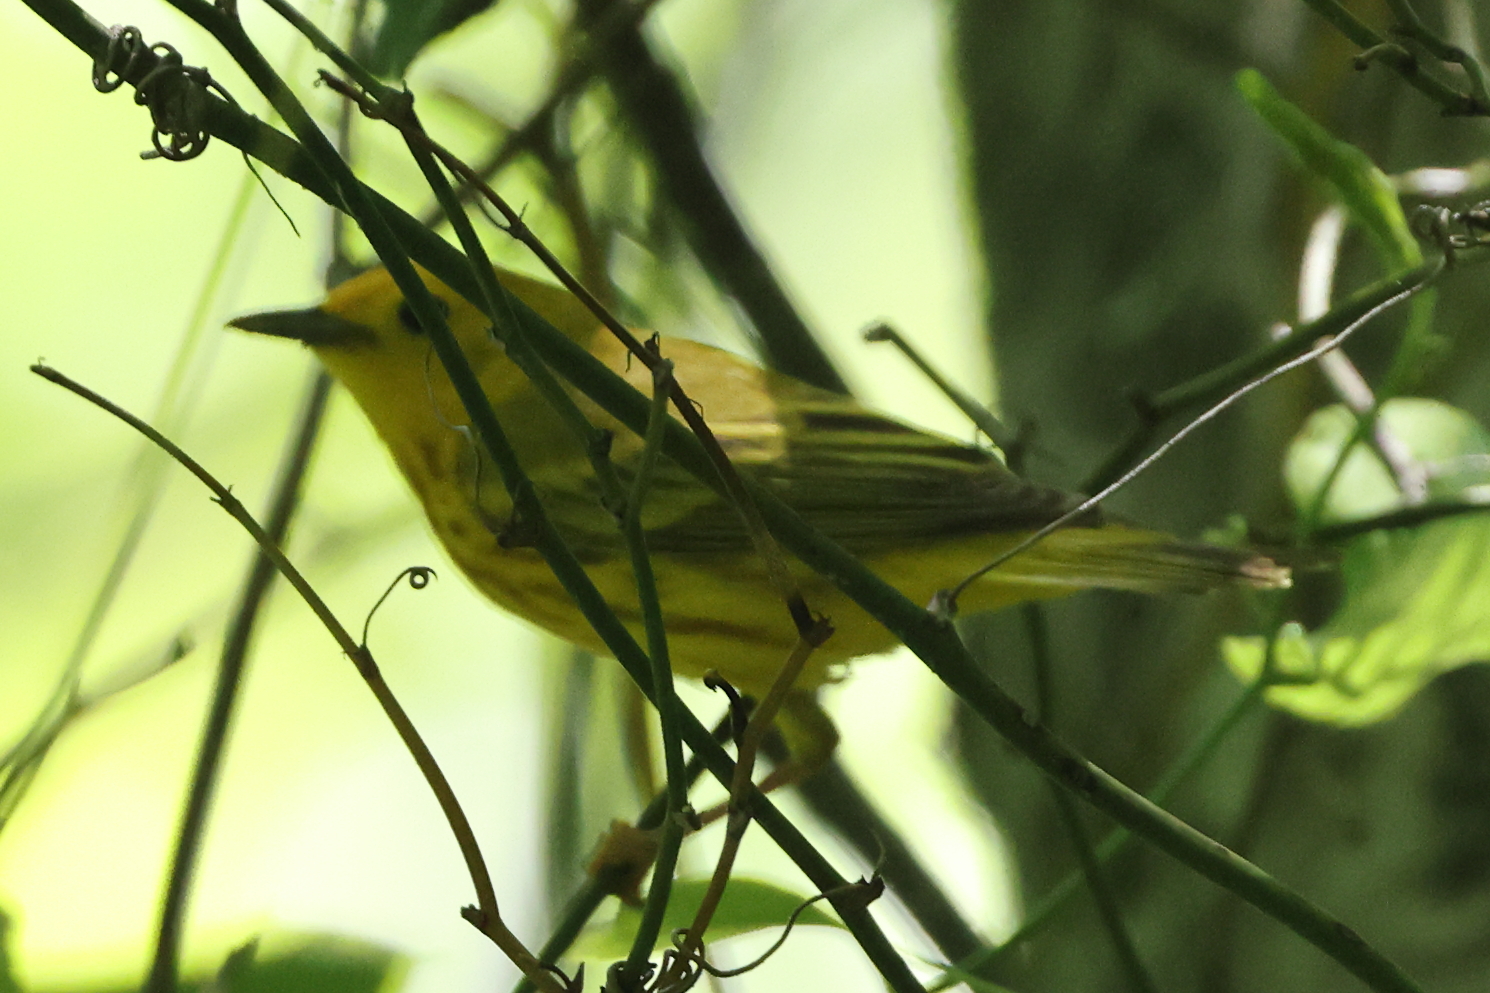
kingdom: Animalia
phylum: Chordata
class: Aves
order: Passeriformes
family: Parulidae
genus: Setophaga
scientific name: Setophaga petechia
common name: Yellow warbler
